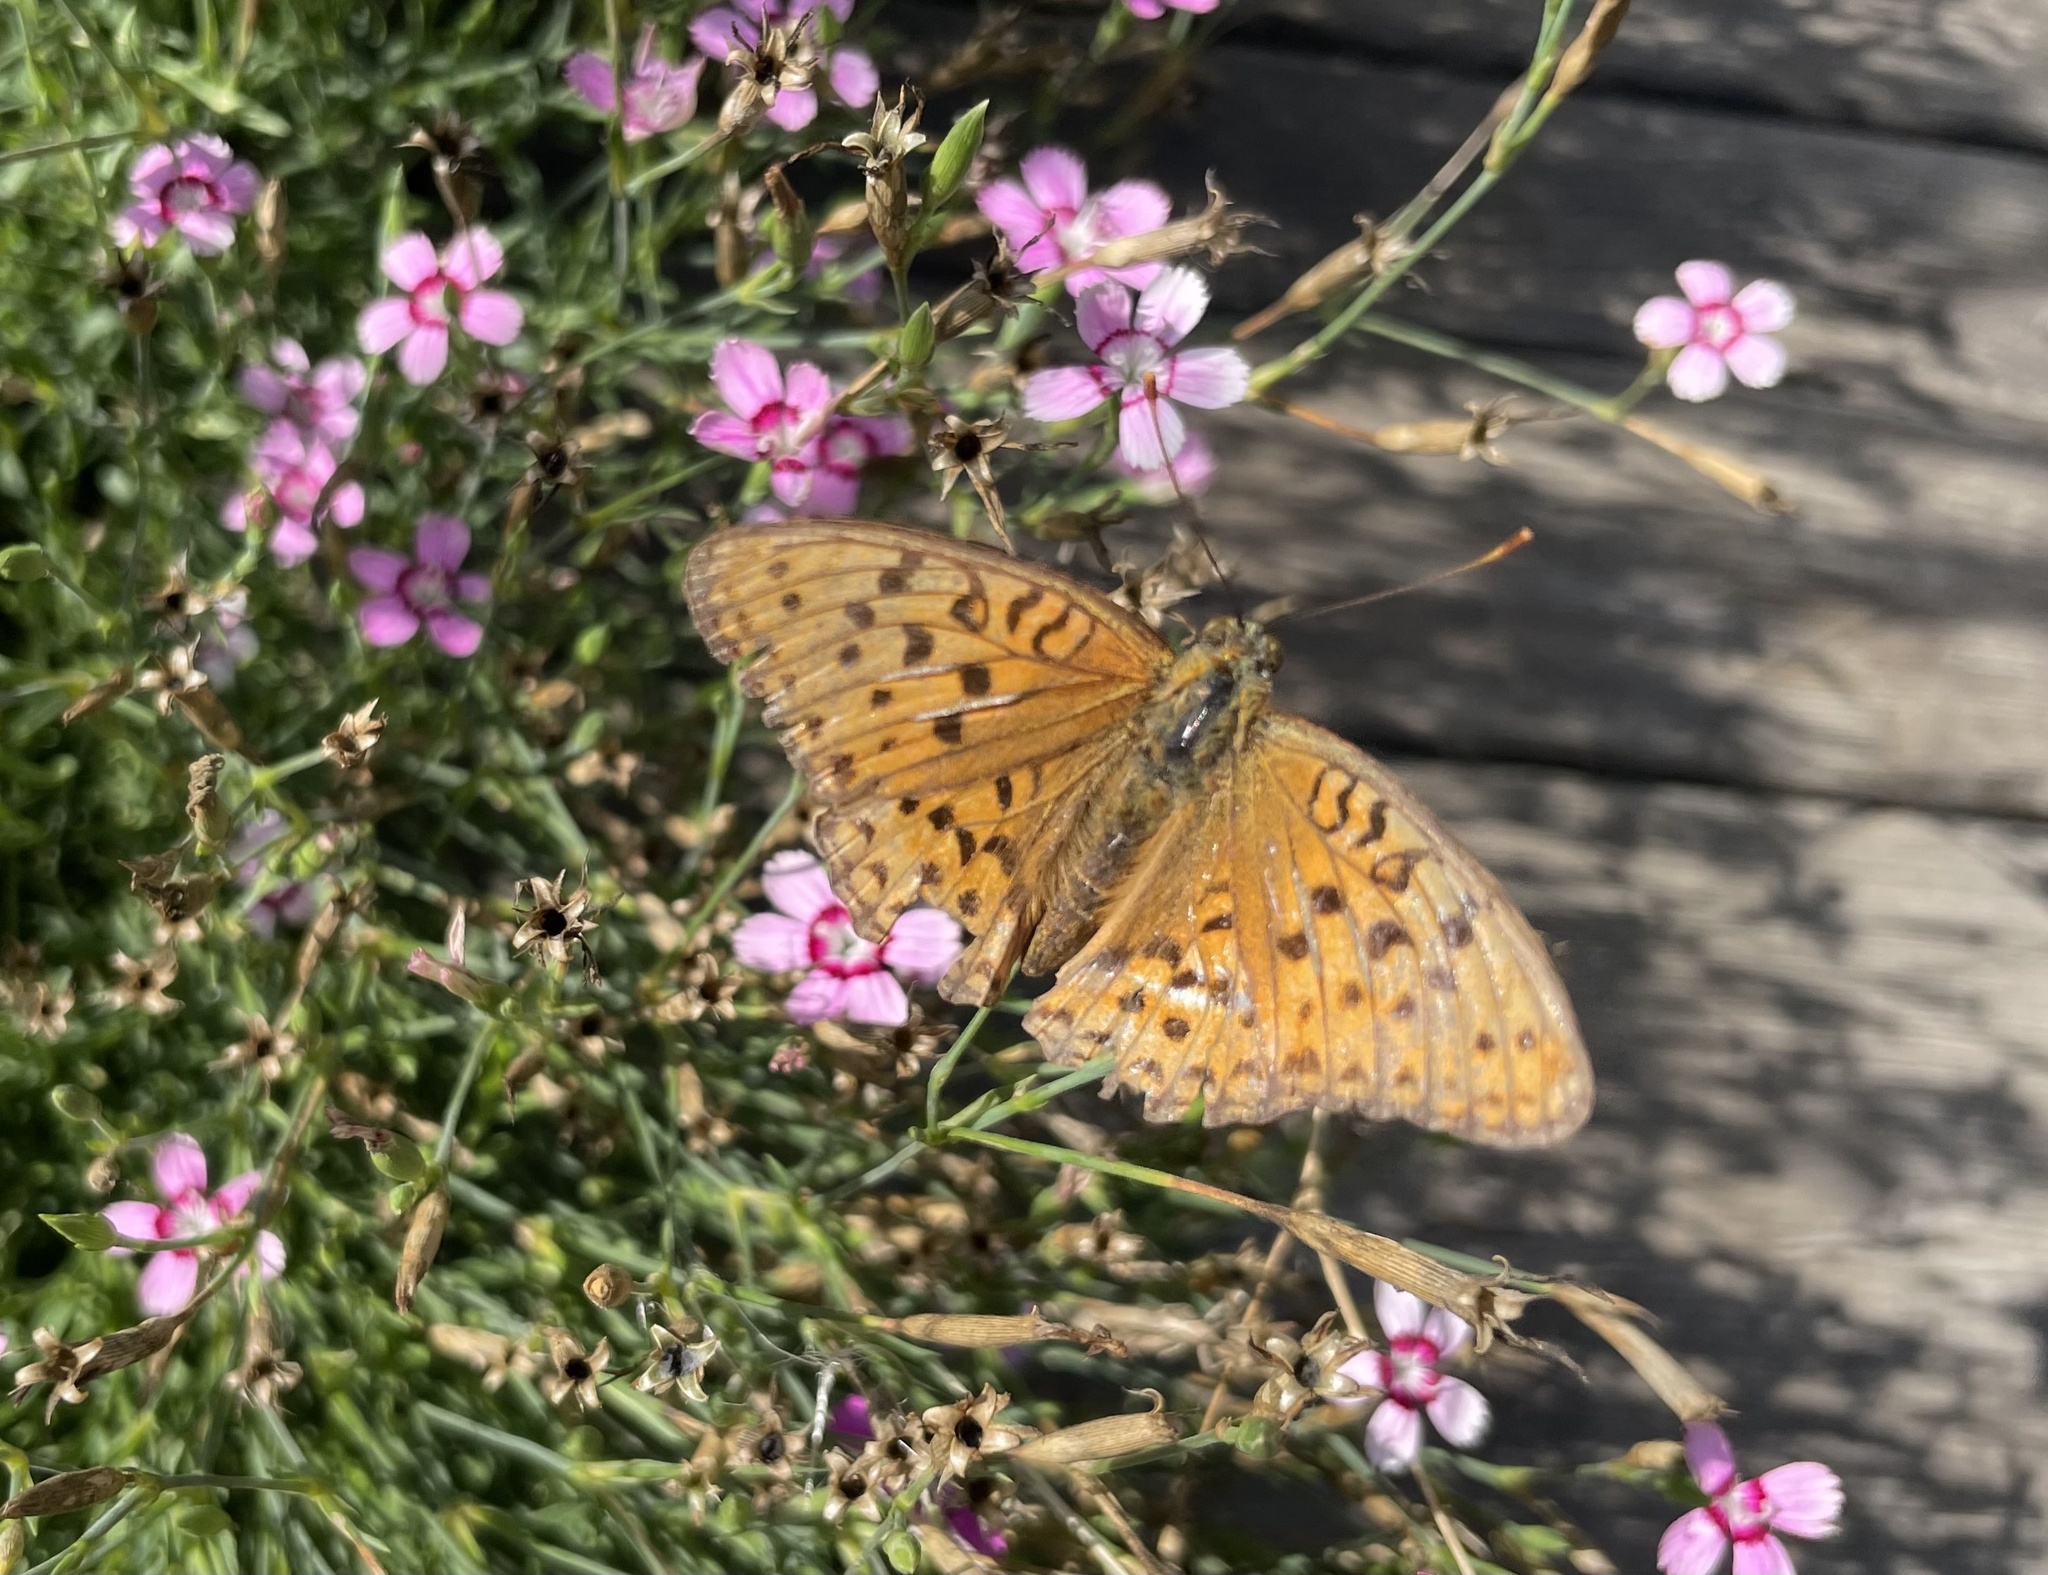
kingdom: Animalia
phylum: Arthropoda
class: Insecta
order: Lepidoptera
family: Nymphalidae
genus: Fabriciana
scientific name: Fabriciana adippe
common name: High brown fritillary
